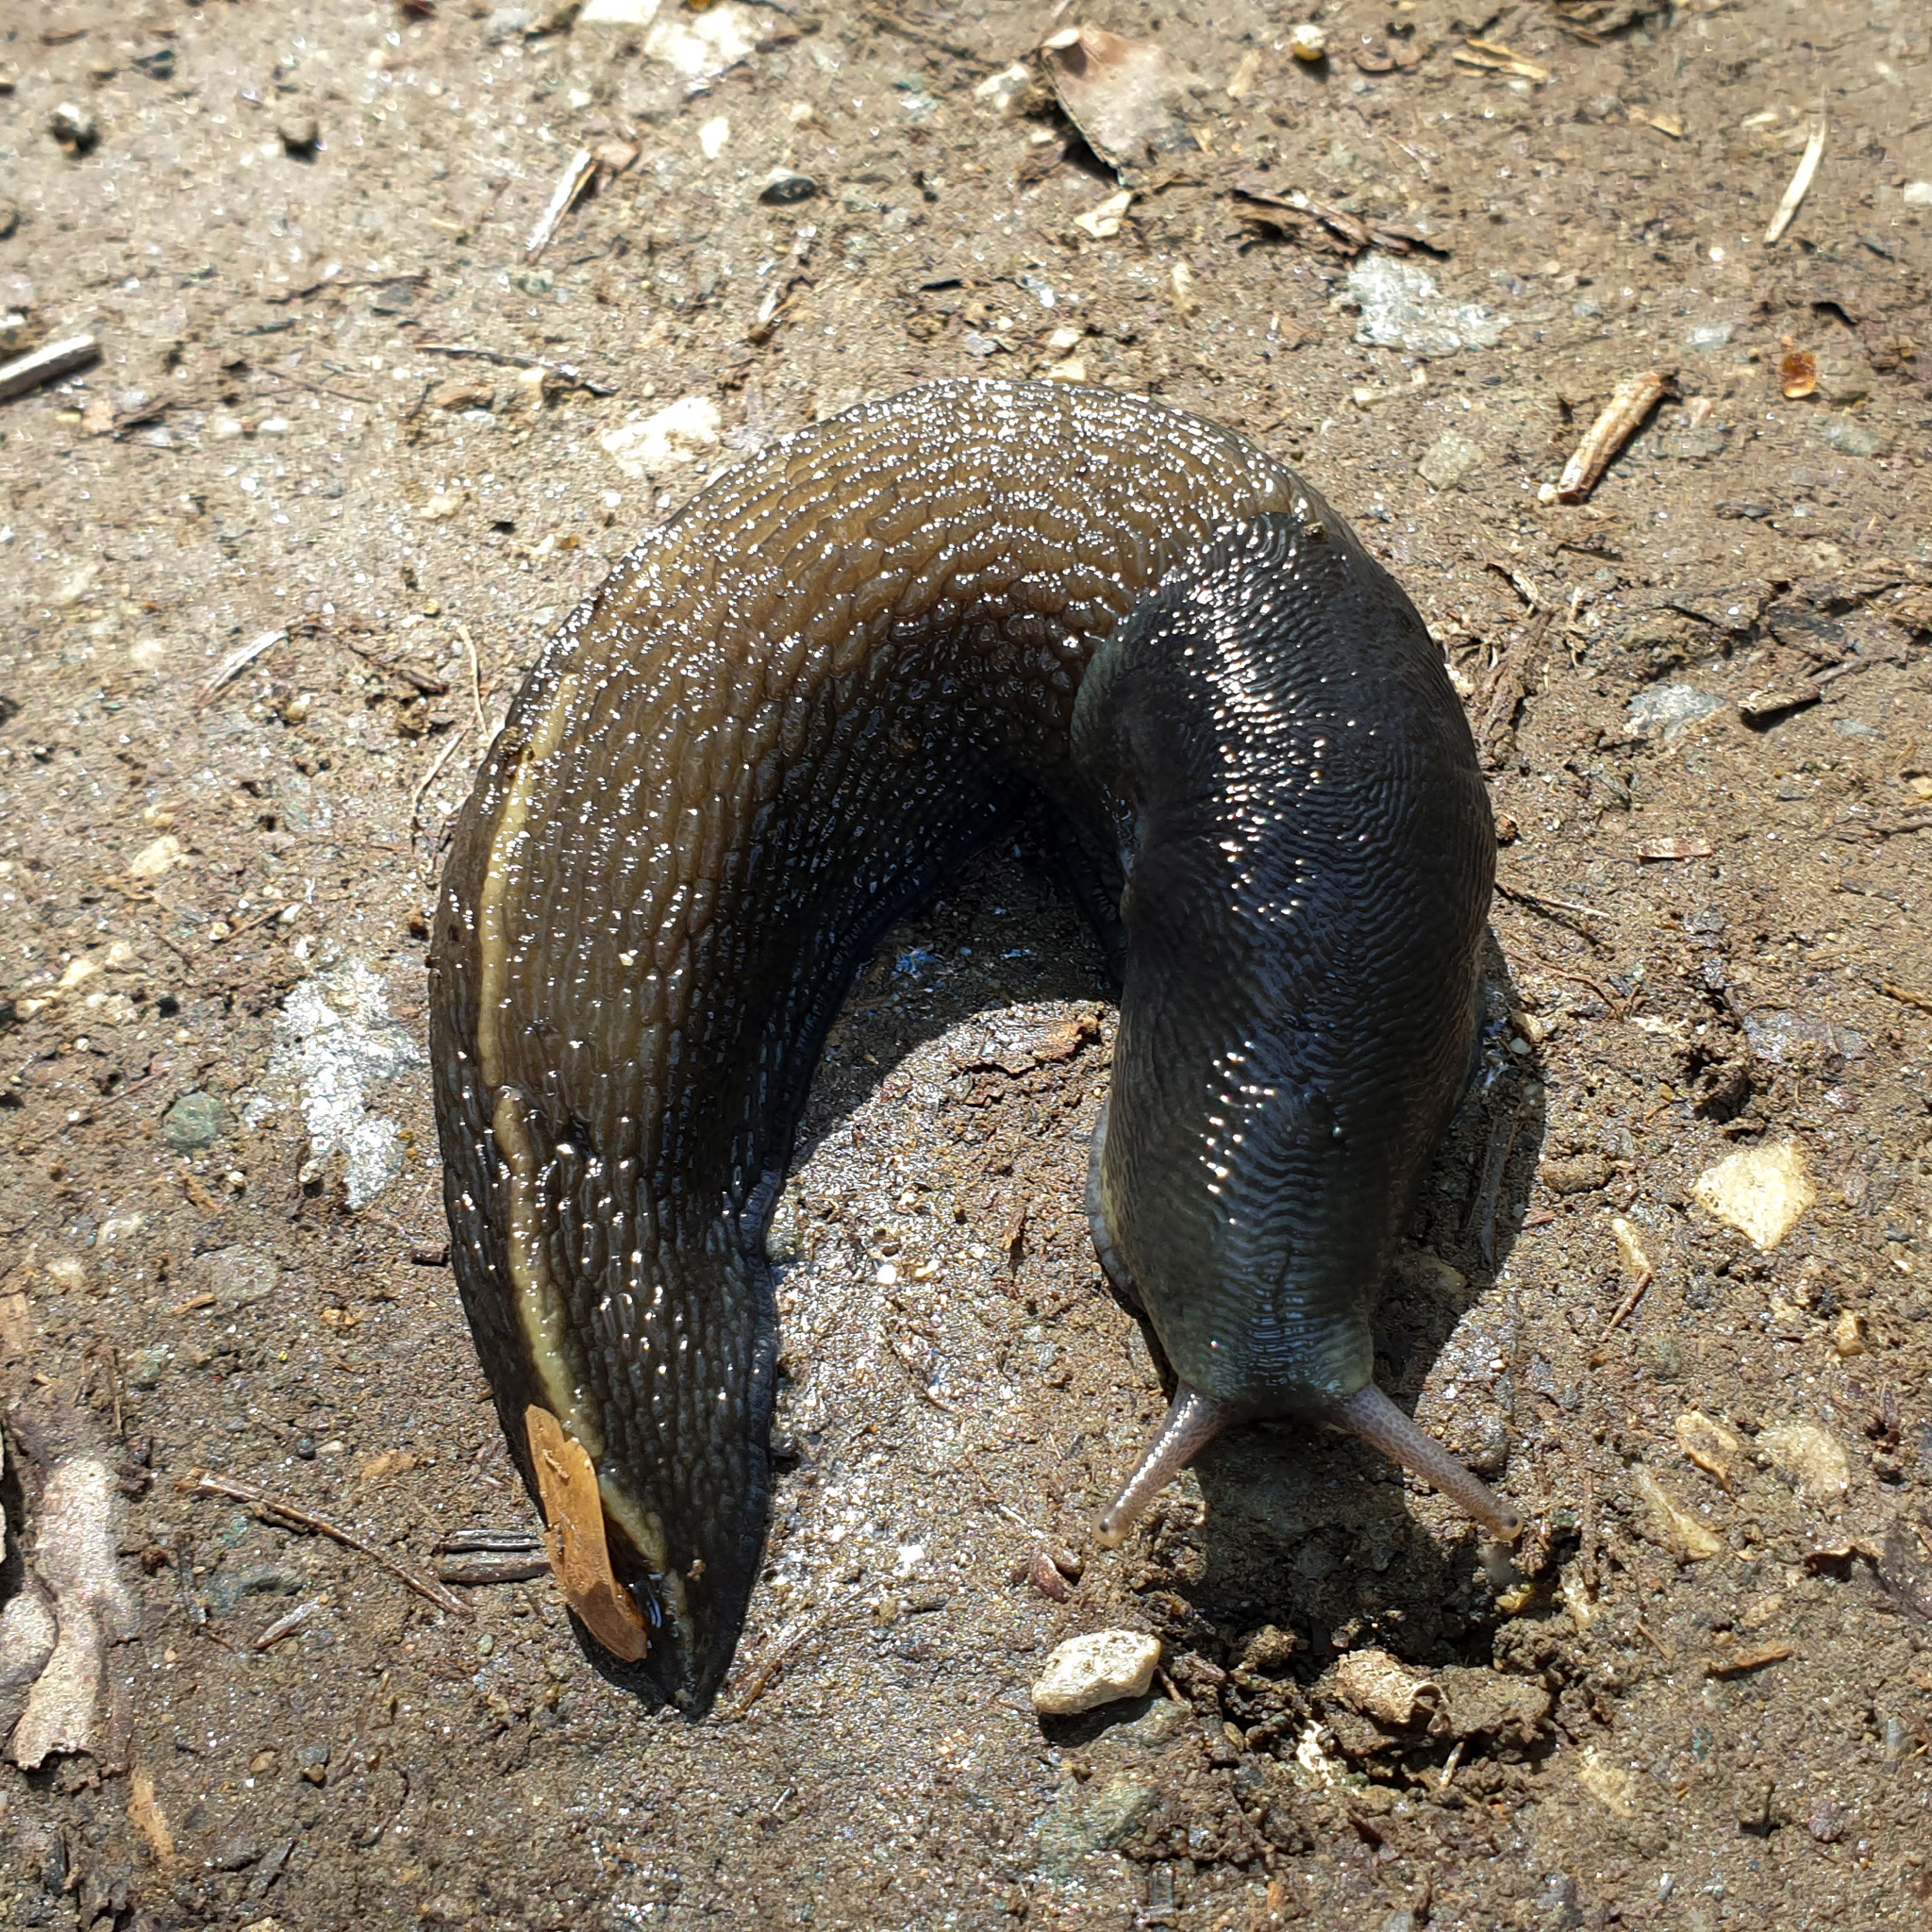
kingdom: Animalia
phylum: Mollusca
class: Gastropoda
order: Stylommatophora
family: Limacidae
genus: Limax
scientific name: Limax cinereoniger
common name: Ash-black slug
